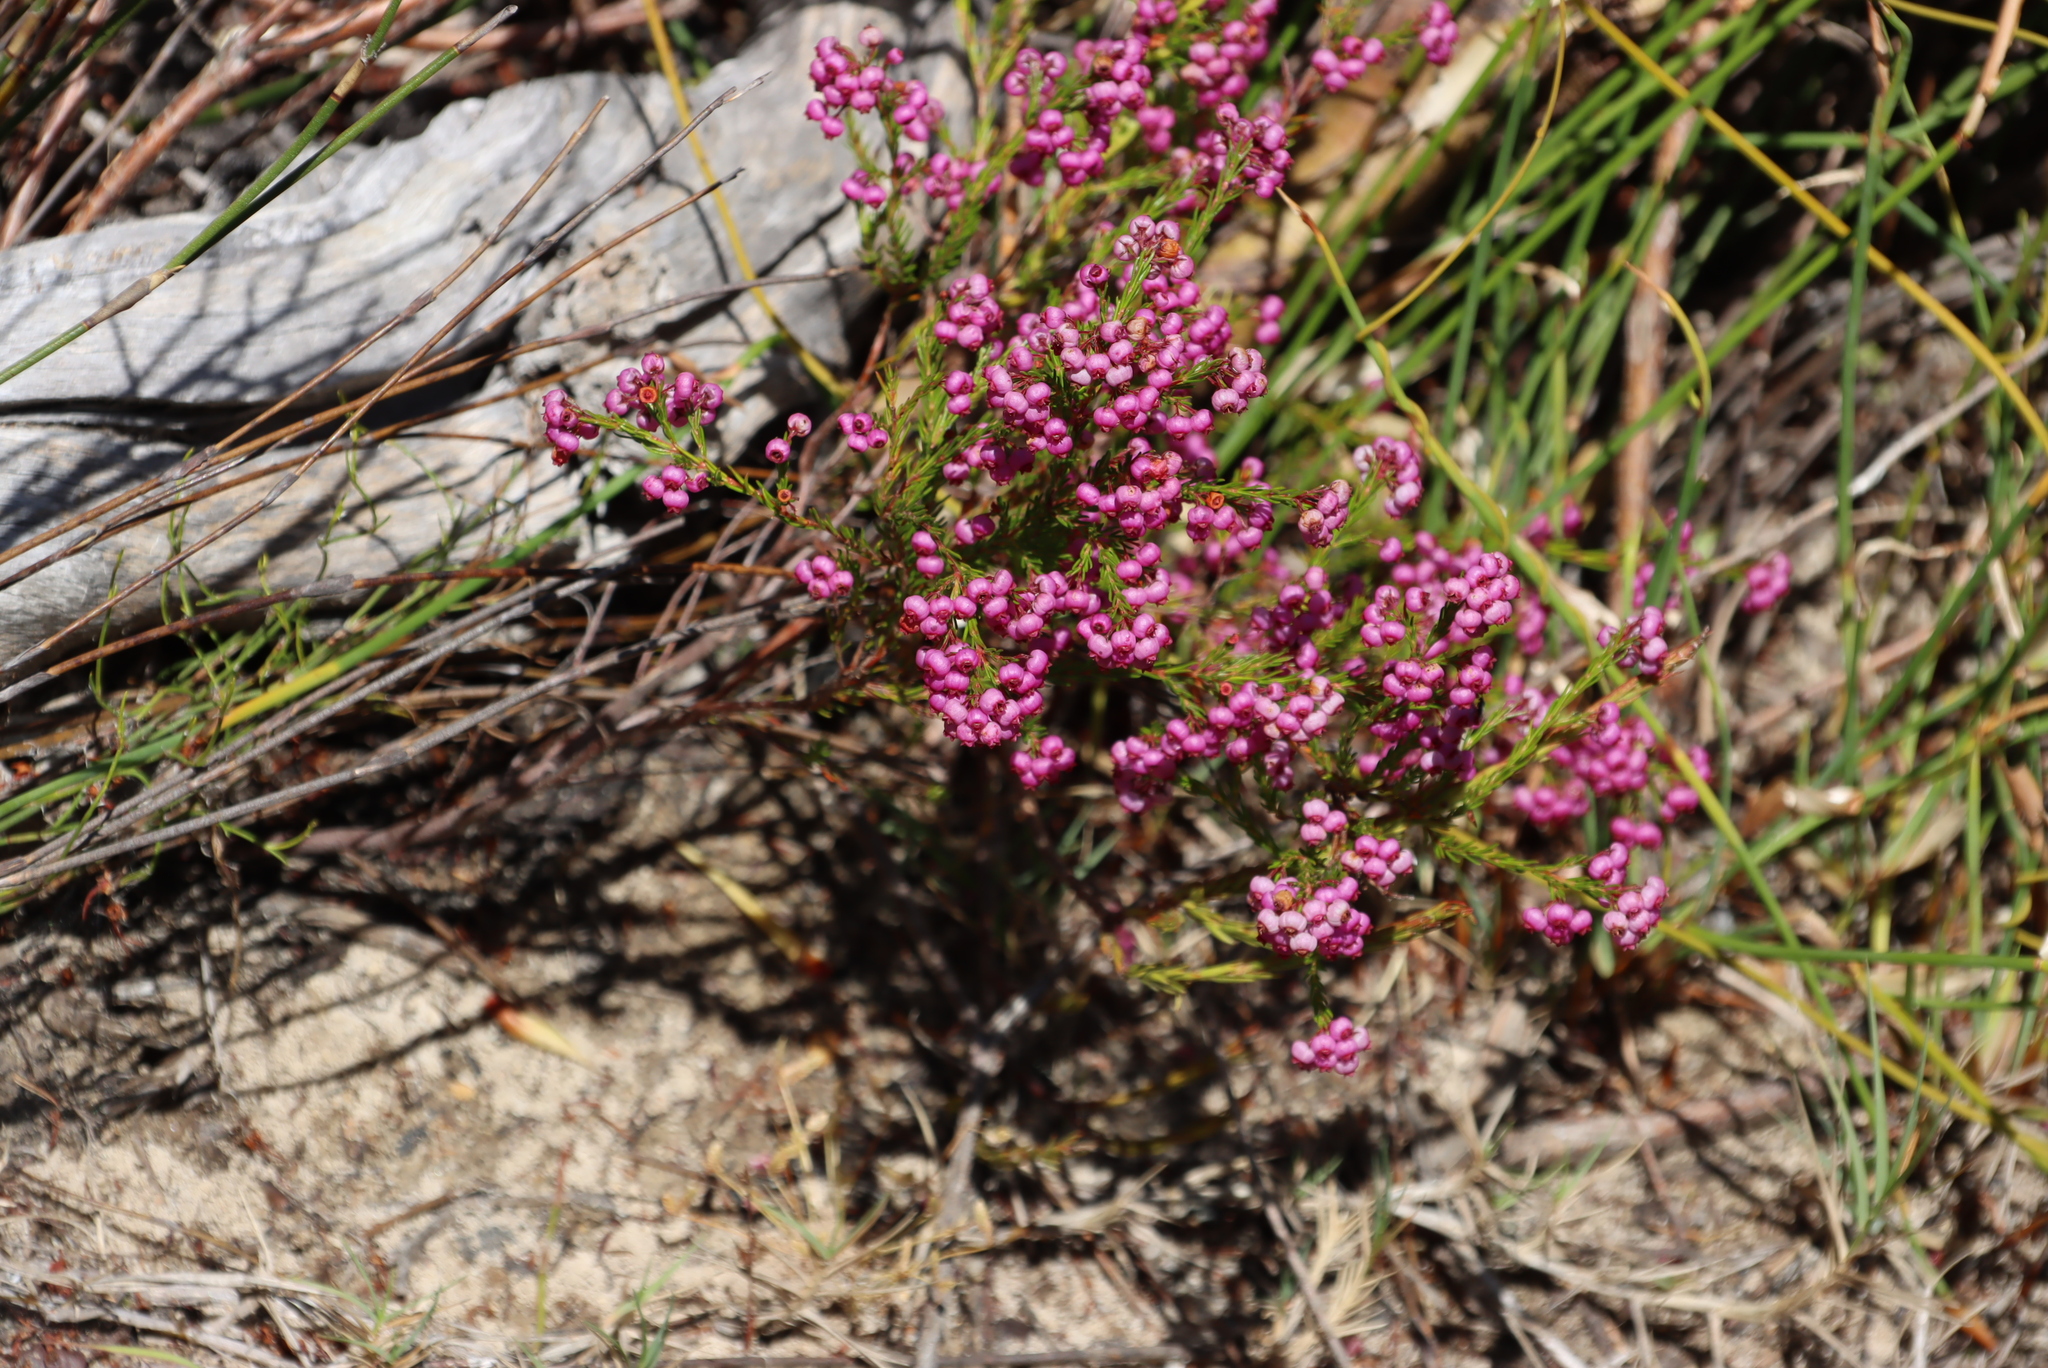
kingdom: Plantae
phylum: Tracheophyta
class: Magnoliopsida
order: Ericales
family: Ericaceae
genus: Erica
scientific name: Erica multumbellifera
